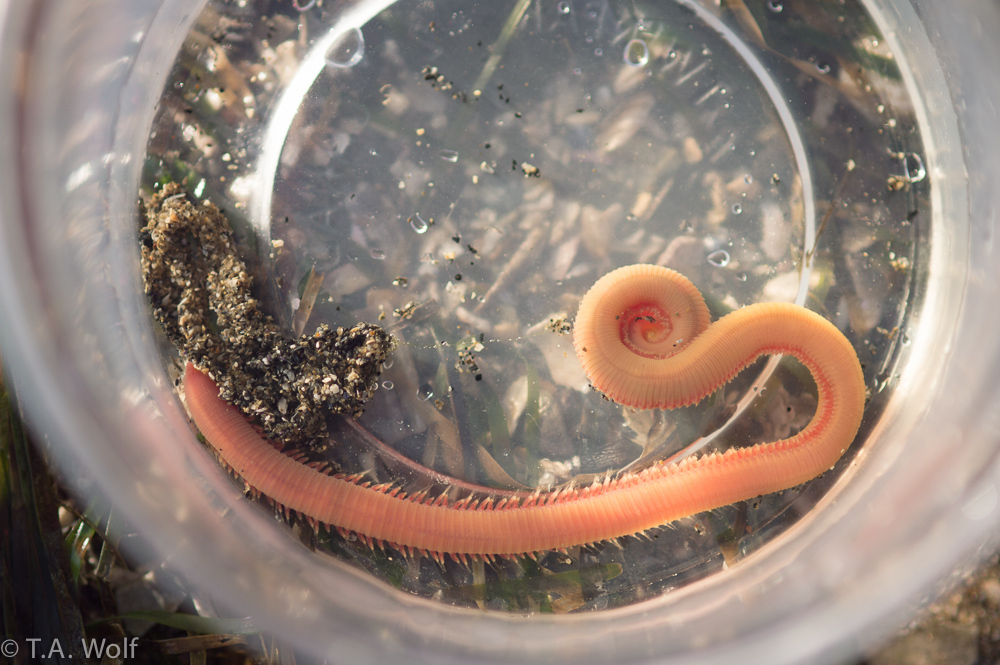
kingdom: Animalia
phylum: Annelida
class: Polychaeta
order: Phyllodocida
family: Glyceridae
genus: Glycera
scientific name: Glycera robusta
